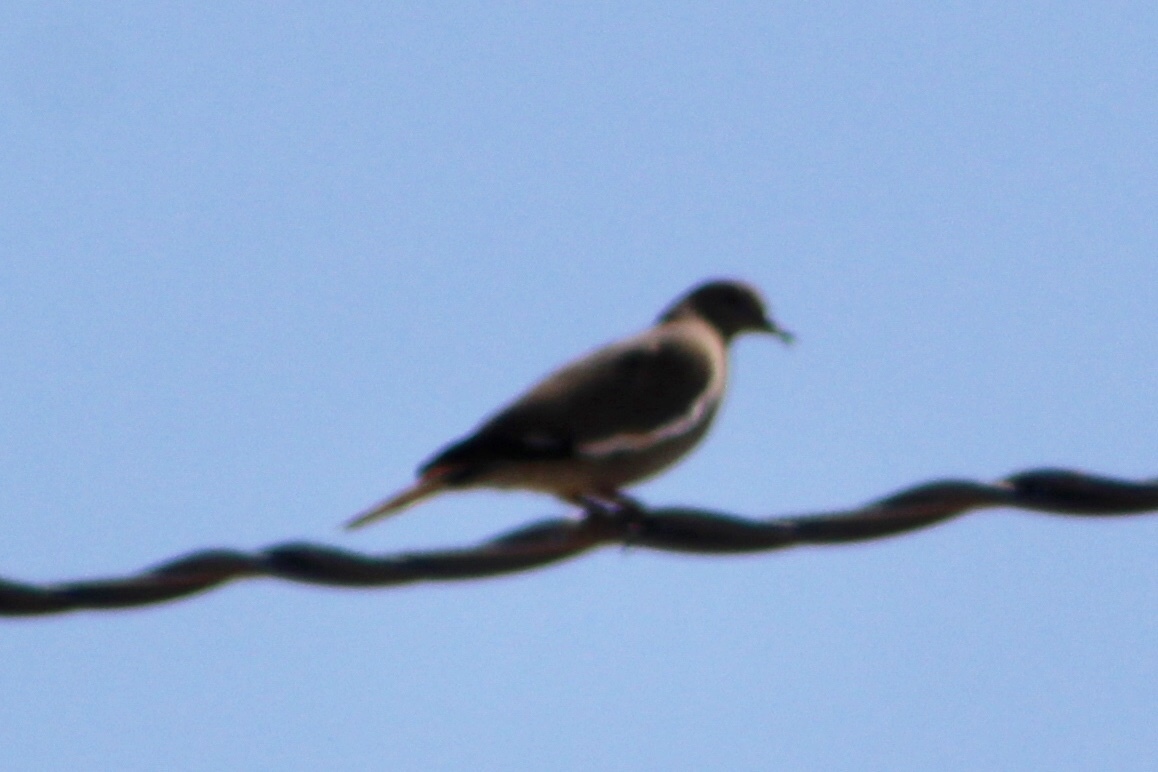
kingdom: Animalia
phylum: Chordata
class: Aves
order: Columbiformes
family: Columbidae
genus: Zenaida
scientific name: Zenaida asiatica
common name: White-winged dove
